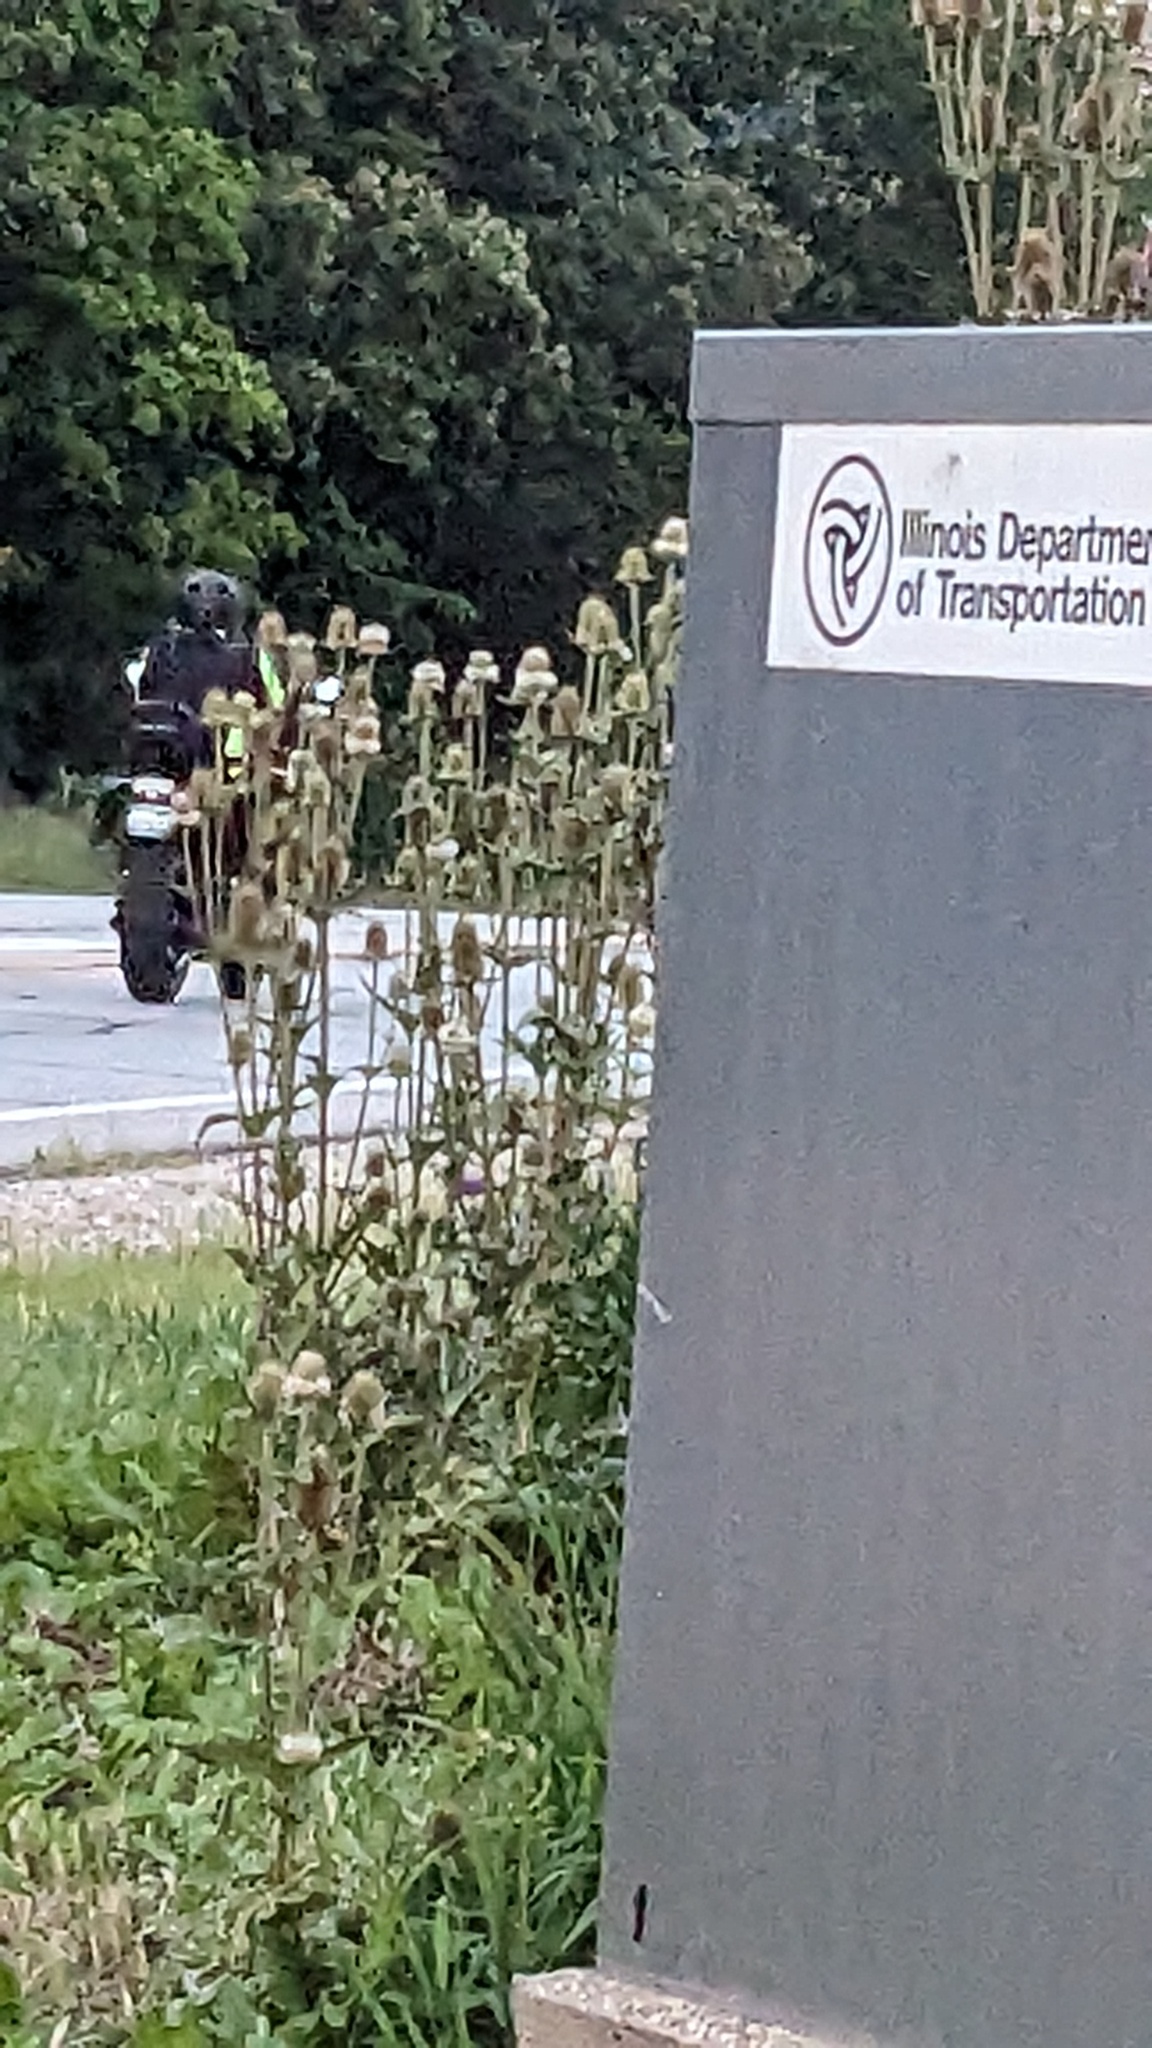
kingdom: Plantae
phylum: Tracheophyta
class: Magnoliopsida
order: Dipsacales
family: Caprifoliaceae
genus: Dipsacus
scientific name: Dipsacus laciniatus
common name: Cut-leaved teasel
